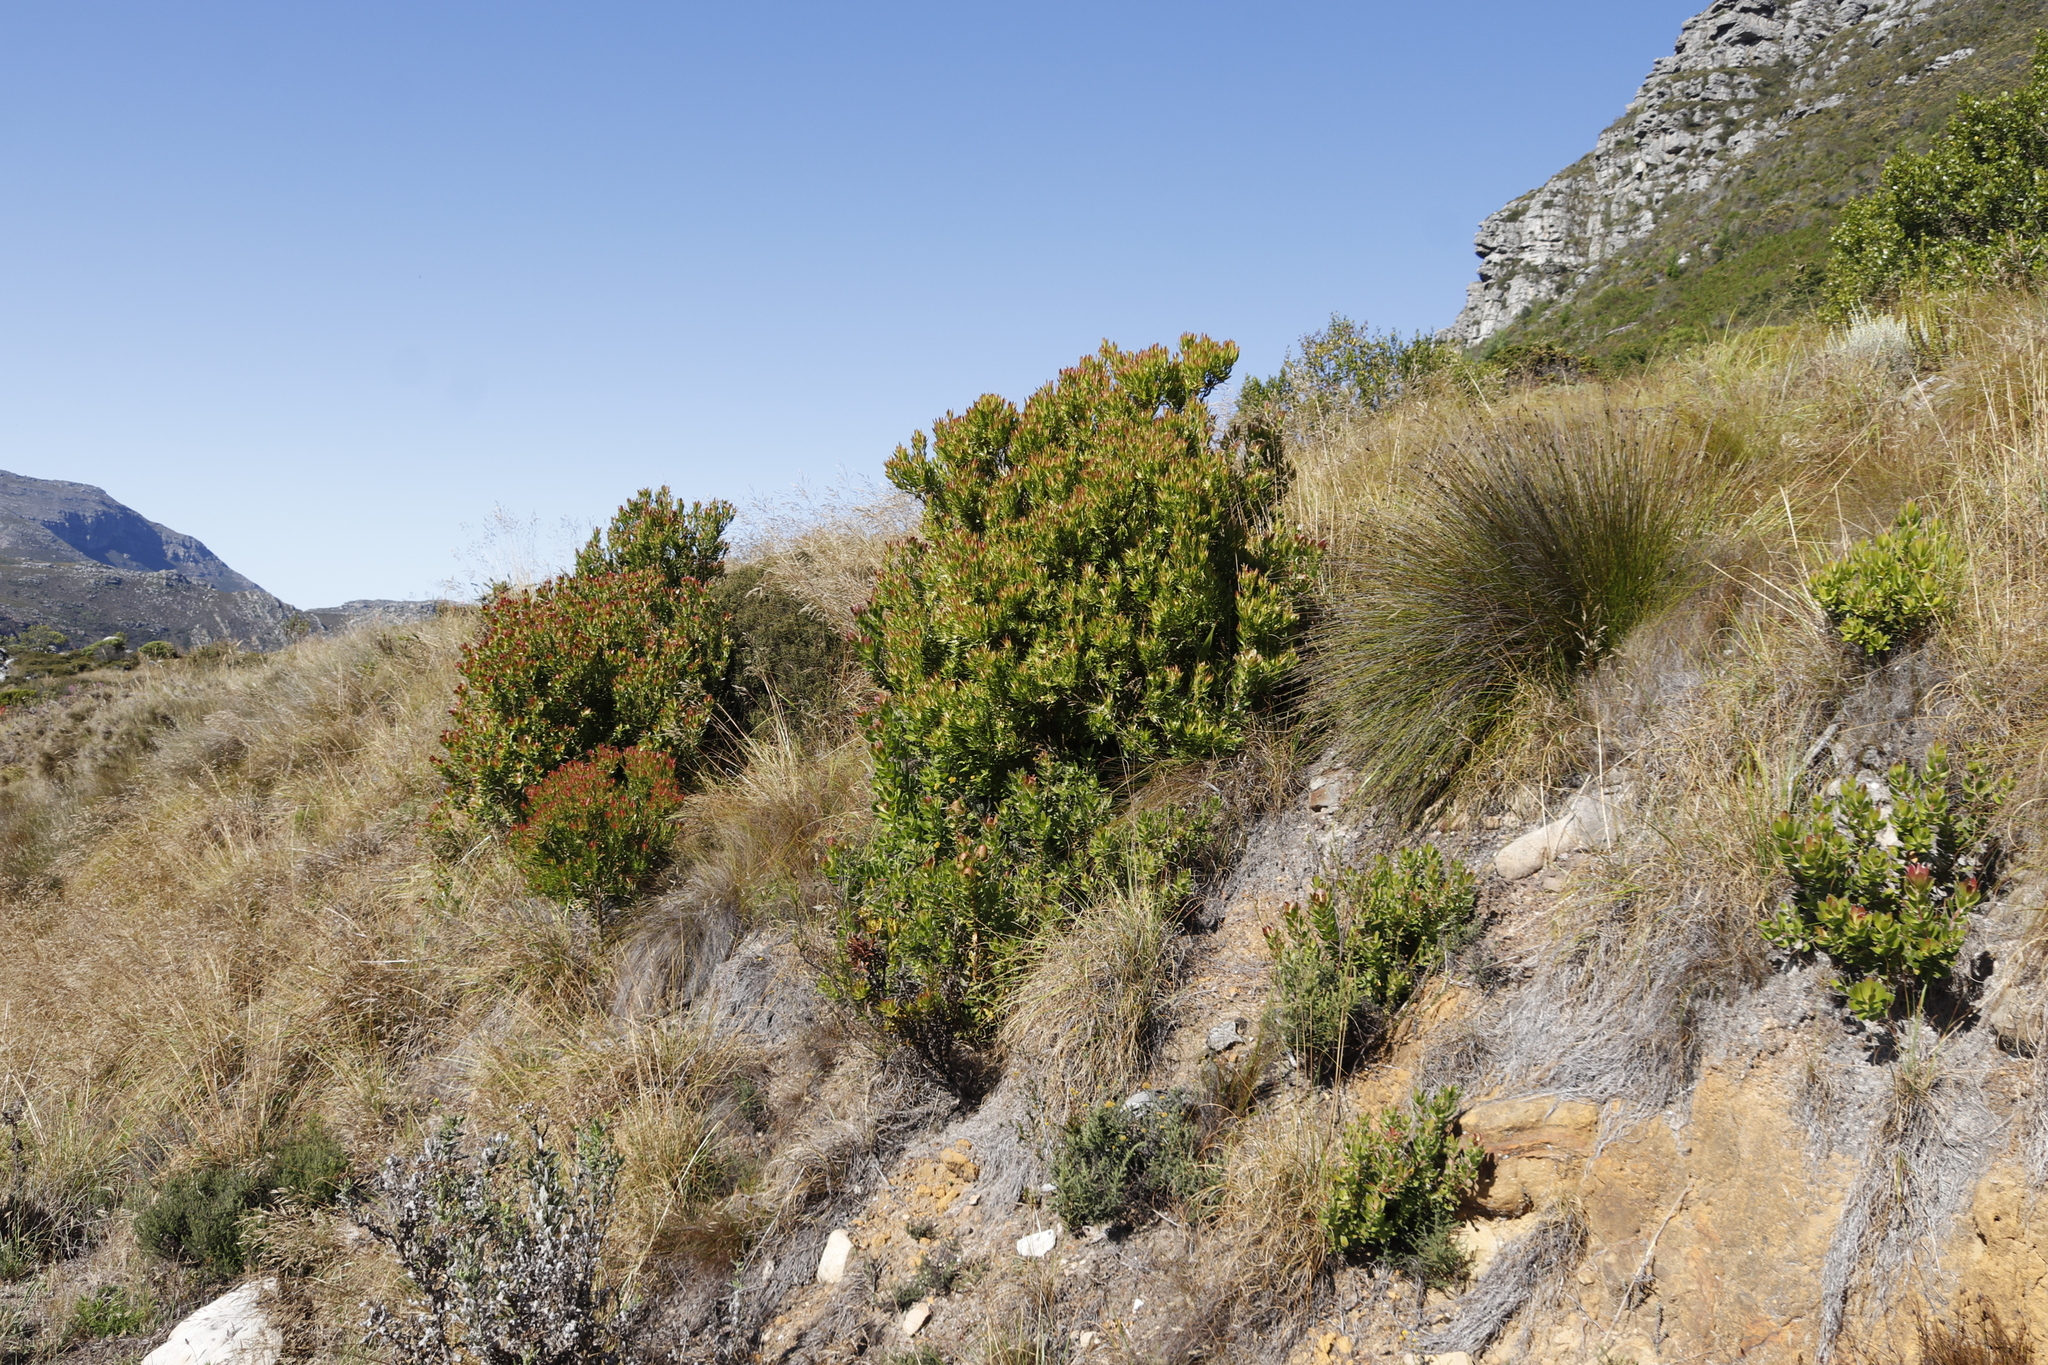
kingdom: Plantae
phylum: Tracheophyta
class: Magnoliopsida
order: Proteales
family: Proteaceae
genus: Leucadendron
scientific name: Leucadendron strobilinum
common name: Mountain rose
